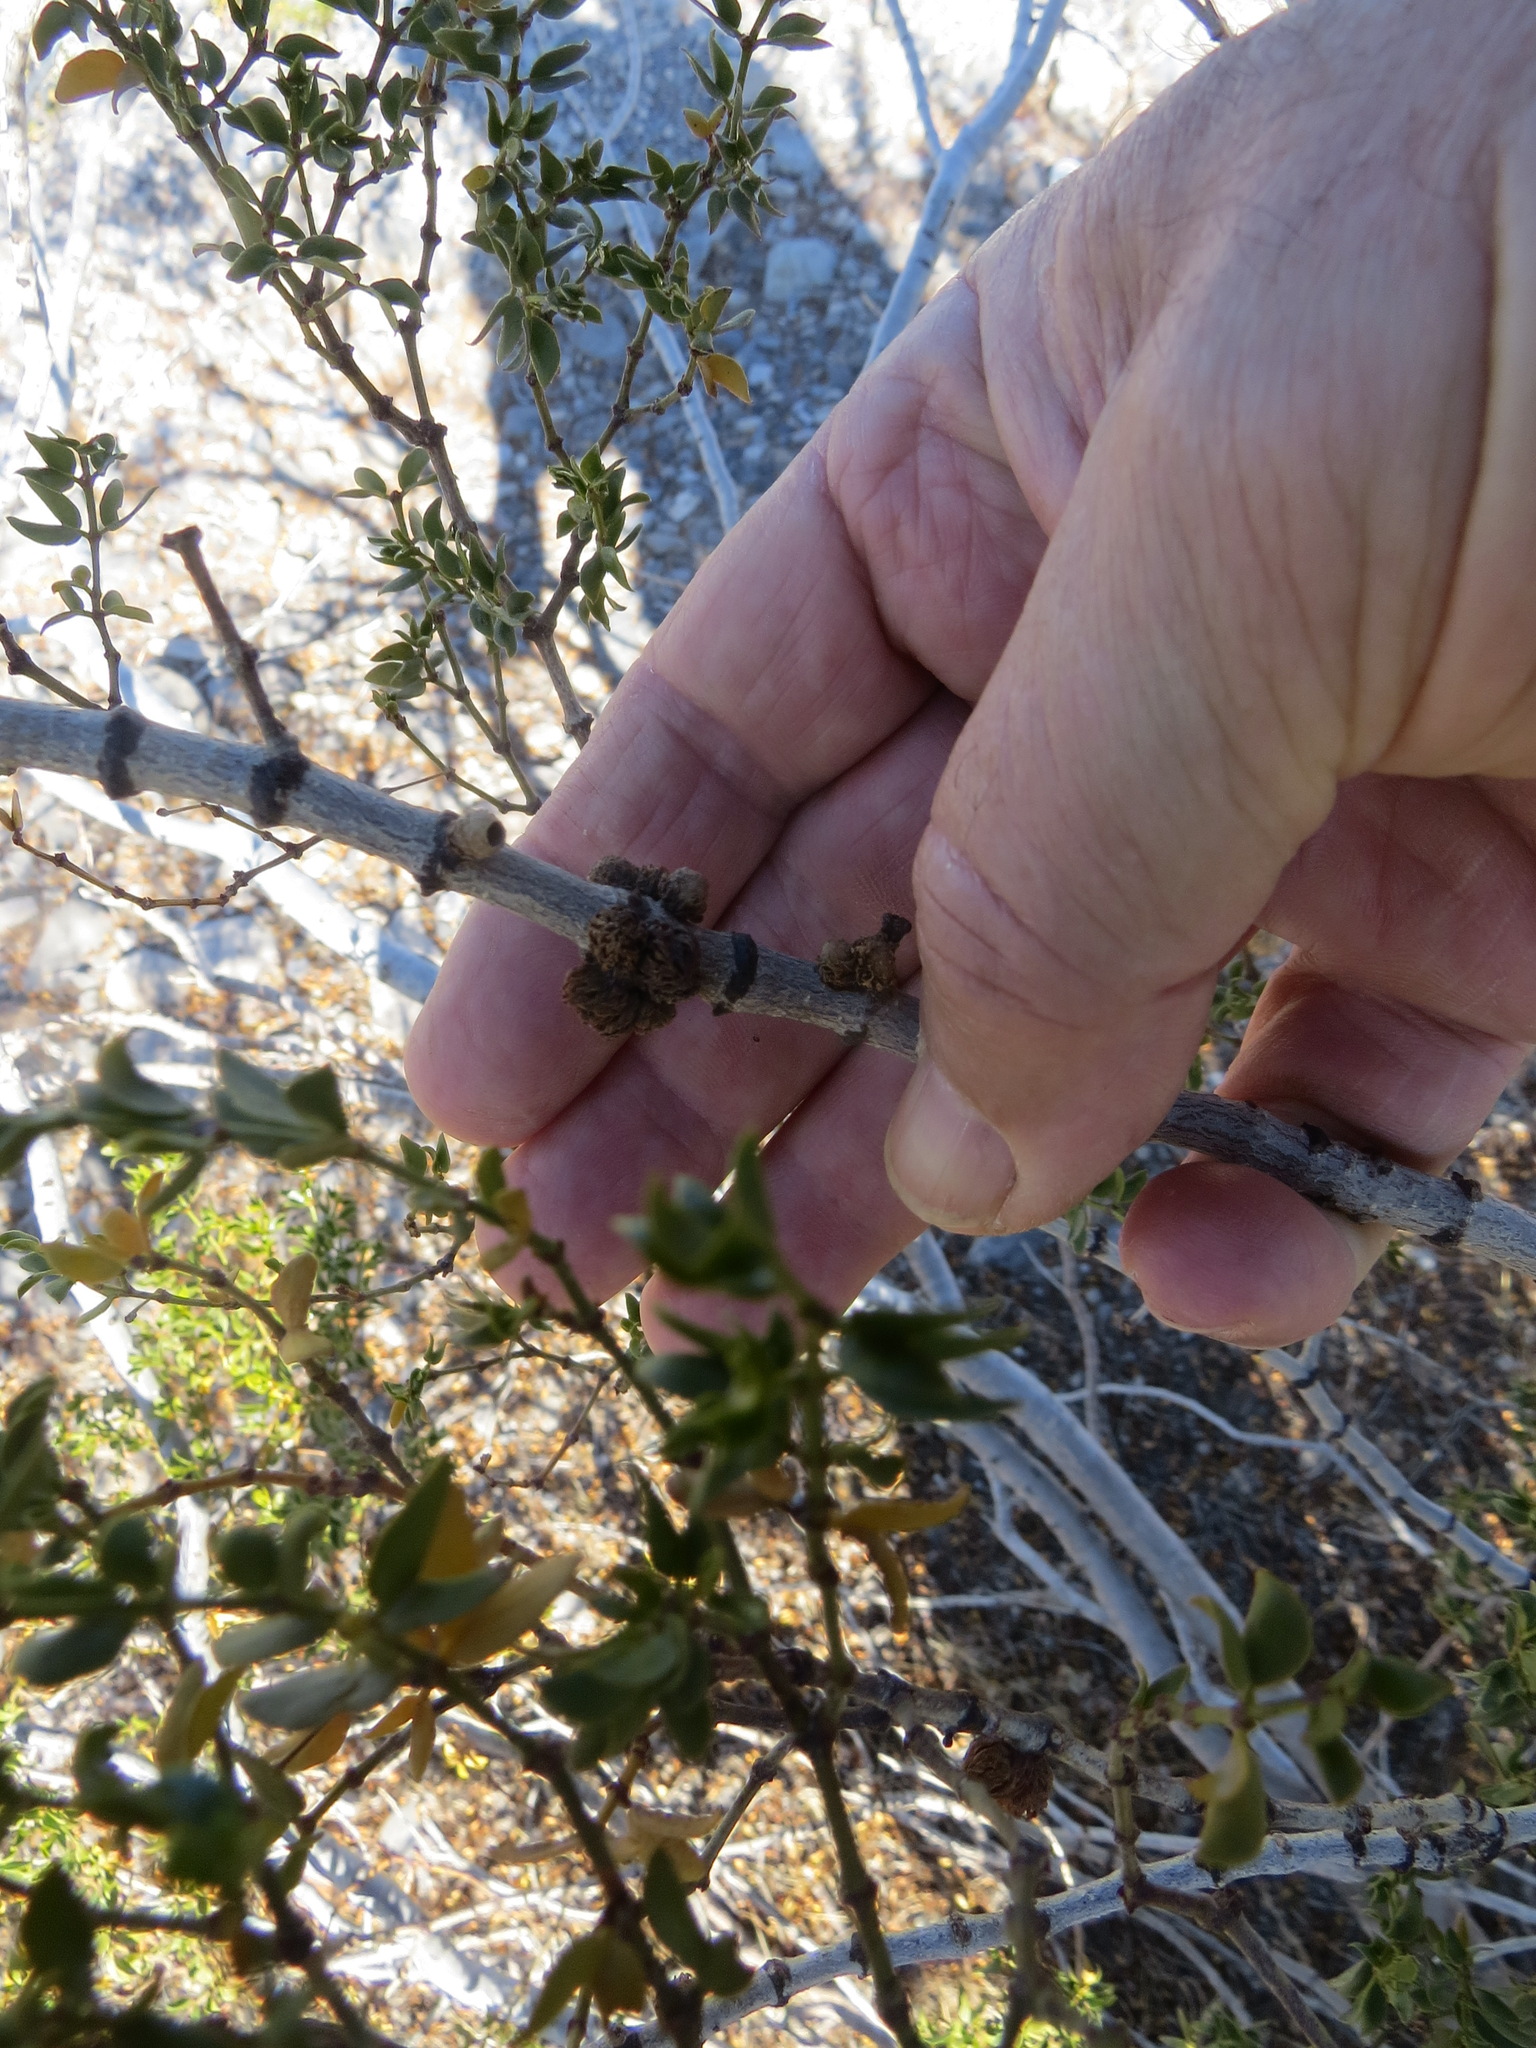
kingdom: Animalia
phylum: Arthropoda
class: Insecta
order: Diptera
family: Cecidomyiidae
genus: Asphondylia
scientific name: Asphondylia foliosa
